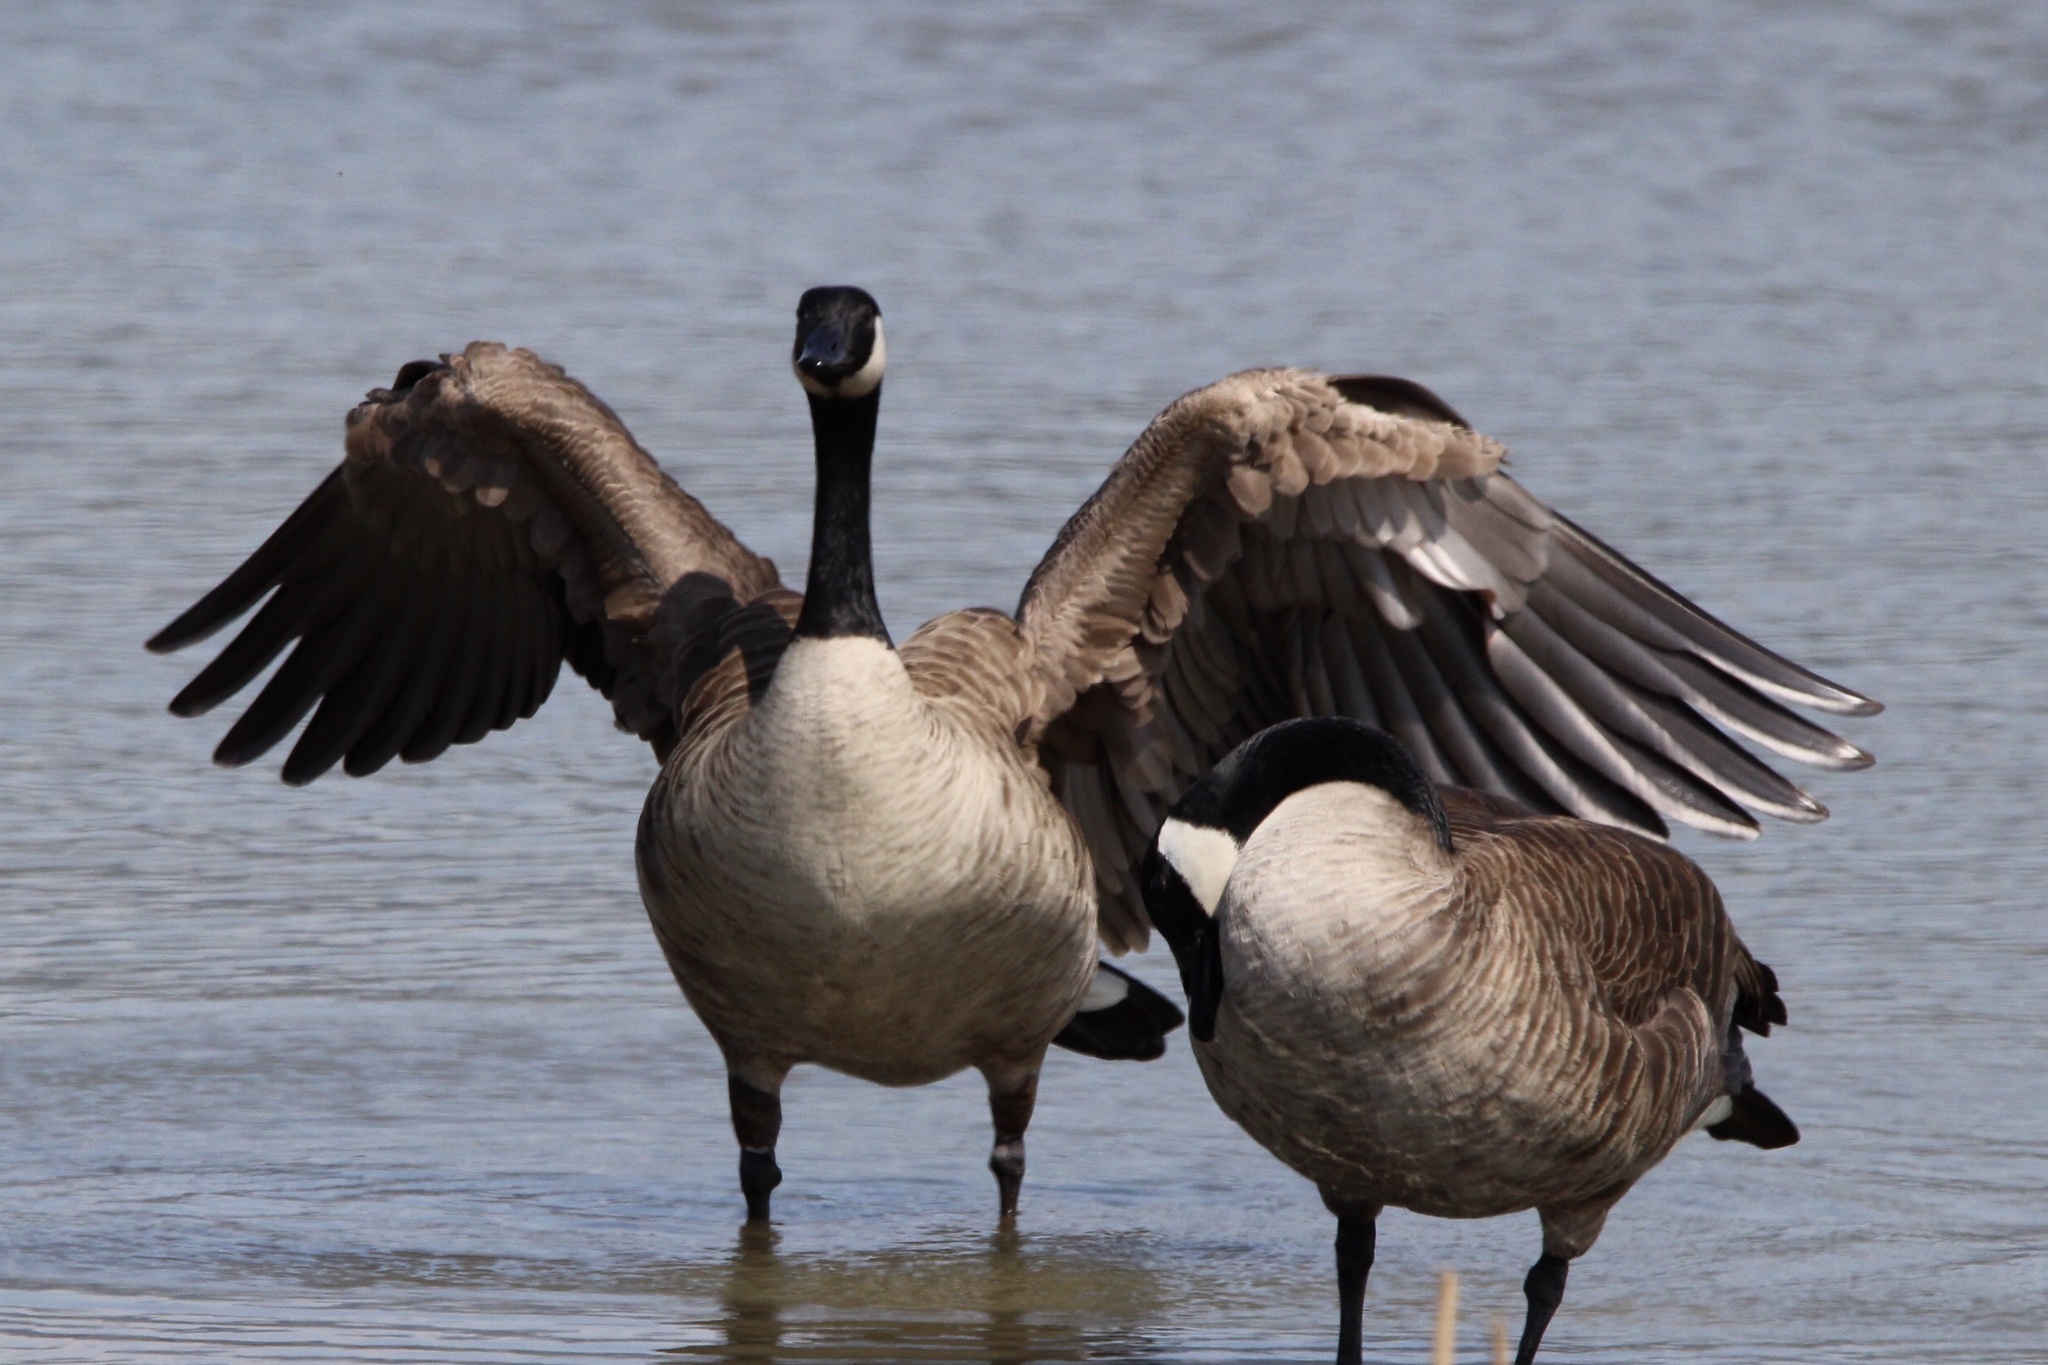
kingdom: Animalia
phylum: Chordata
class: Aves
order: Anseriformes
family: Anatidae
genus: Branta
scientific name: Branta canadensis
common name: Canada goose
